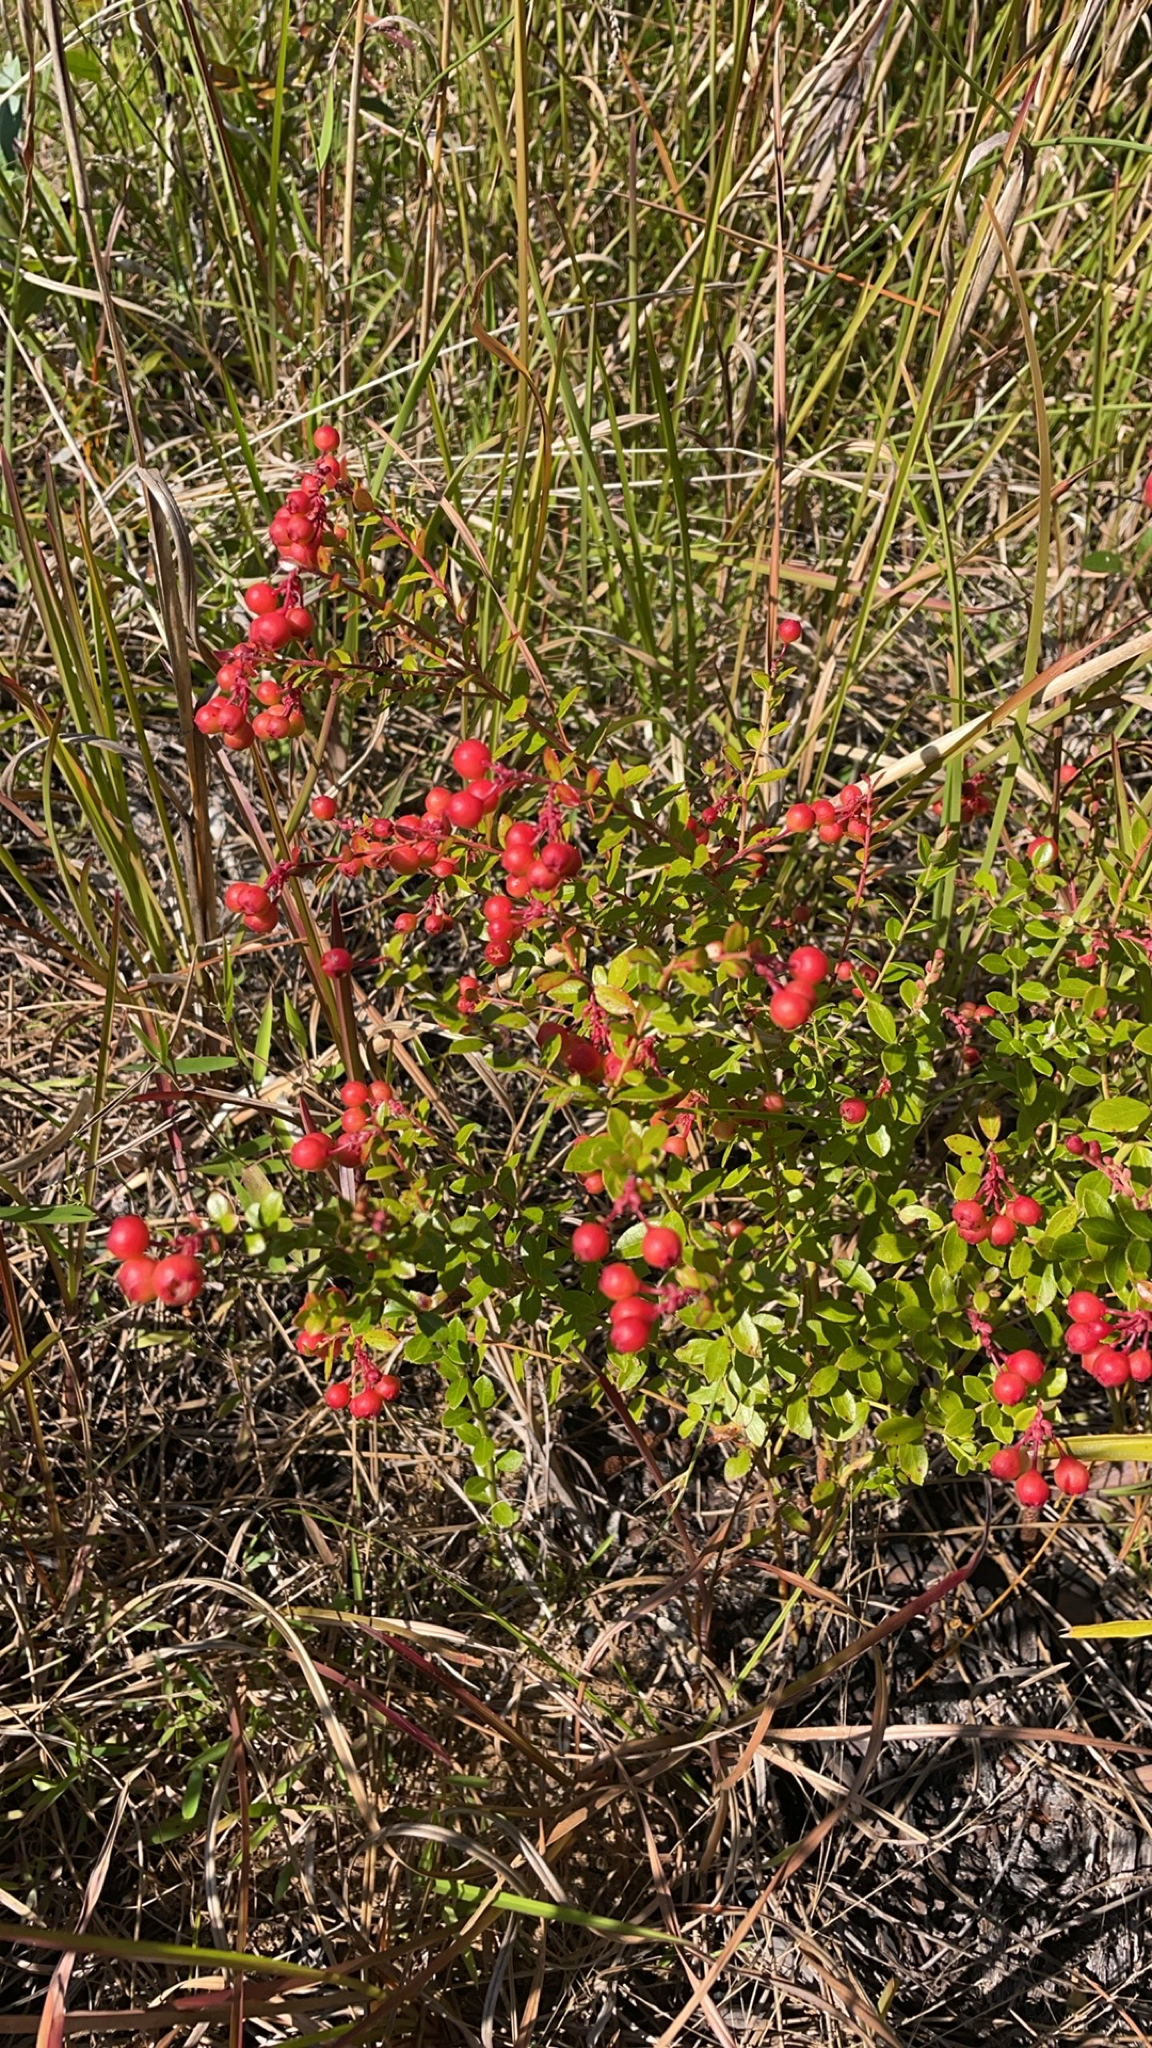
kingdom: Plantae
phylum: Tracheophyta
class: Magnoliopsida
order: Ericales
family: Ericaceae
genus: Vaccinium
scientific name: Vaccinium myrsinites
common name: Evergreen blueberry
